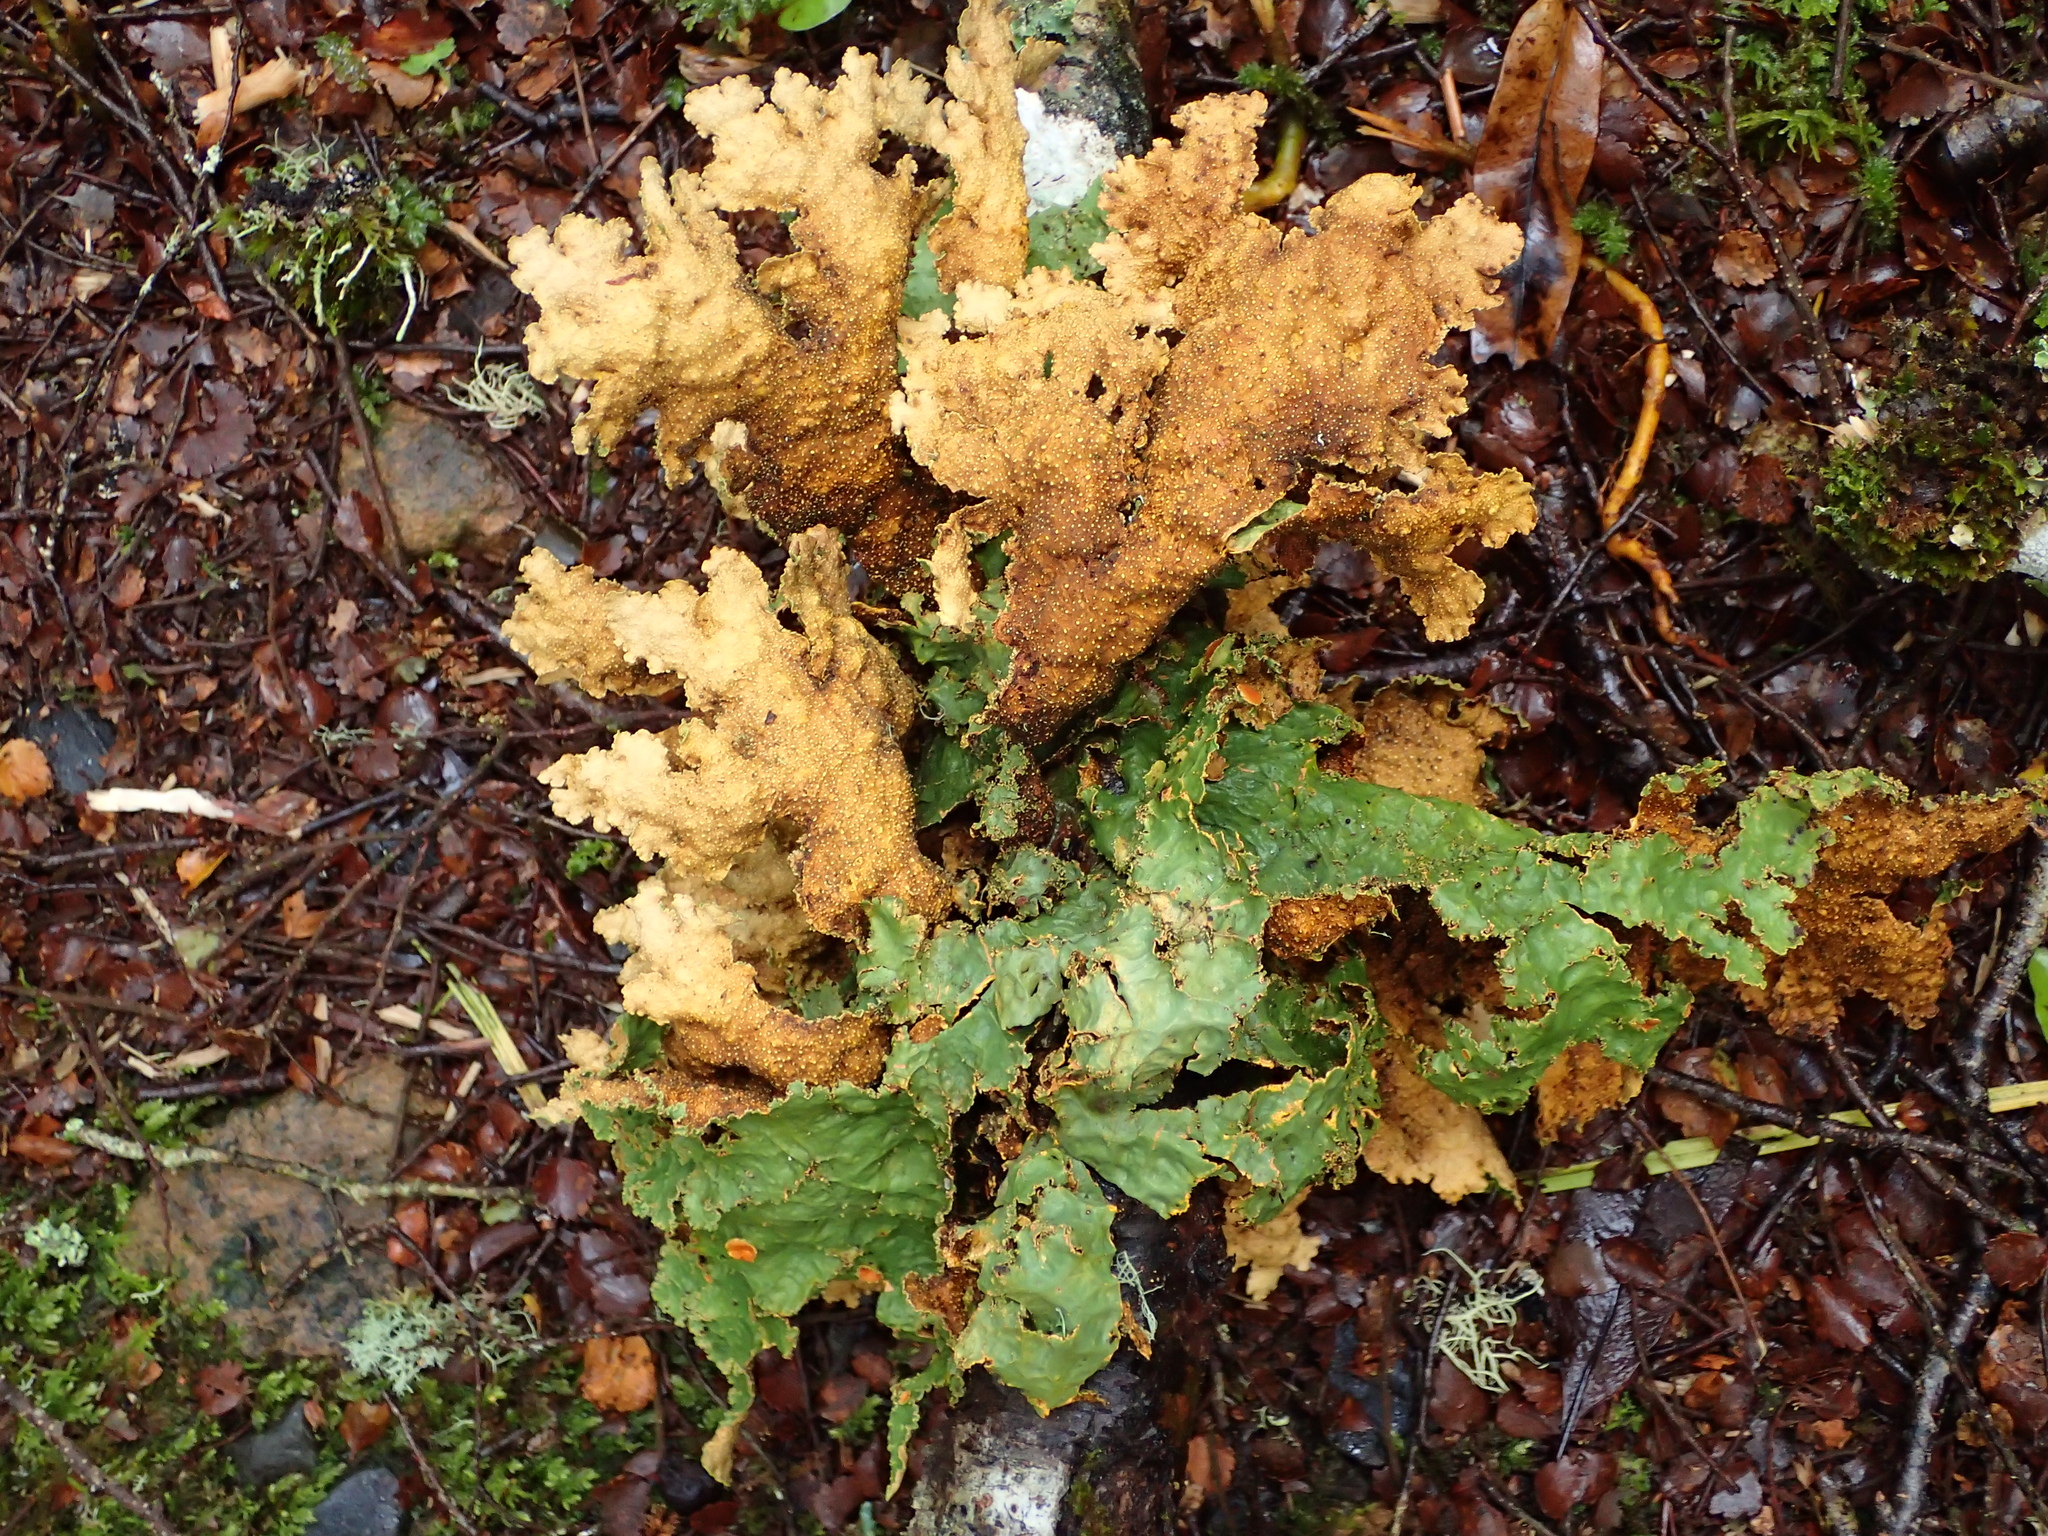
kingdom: Fungi
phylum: Ascomycota
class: Lecanoromycetes
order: Peltigerales
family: Lobariaceae
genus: Yarrumia
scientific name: Yarrumia colensoi
